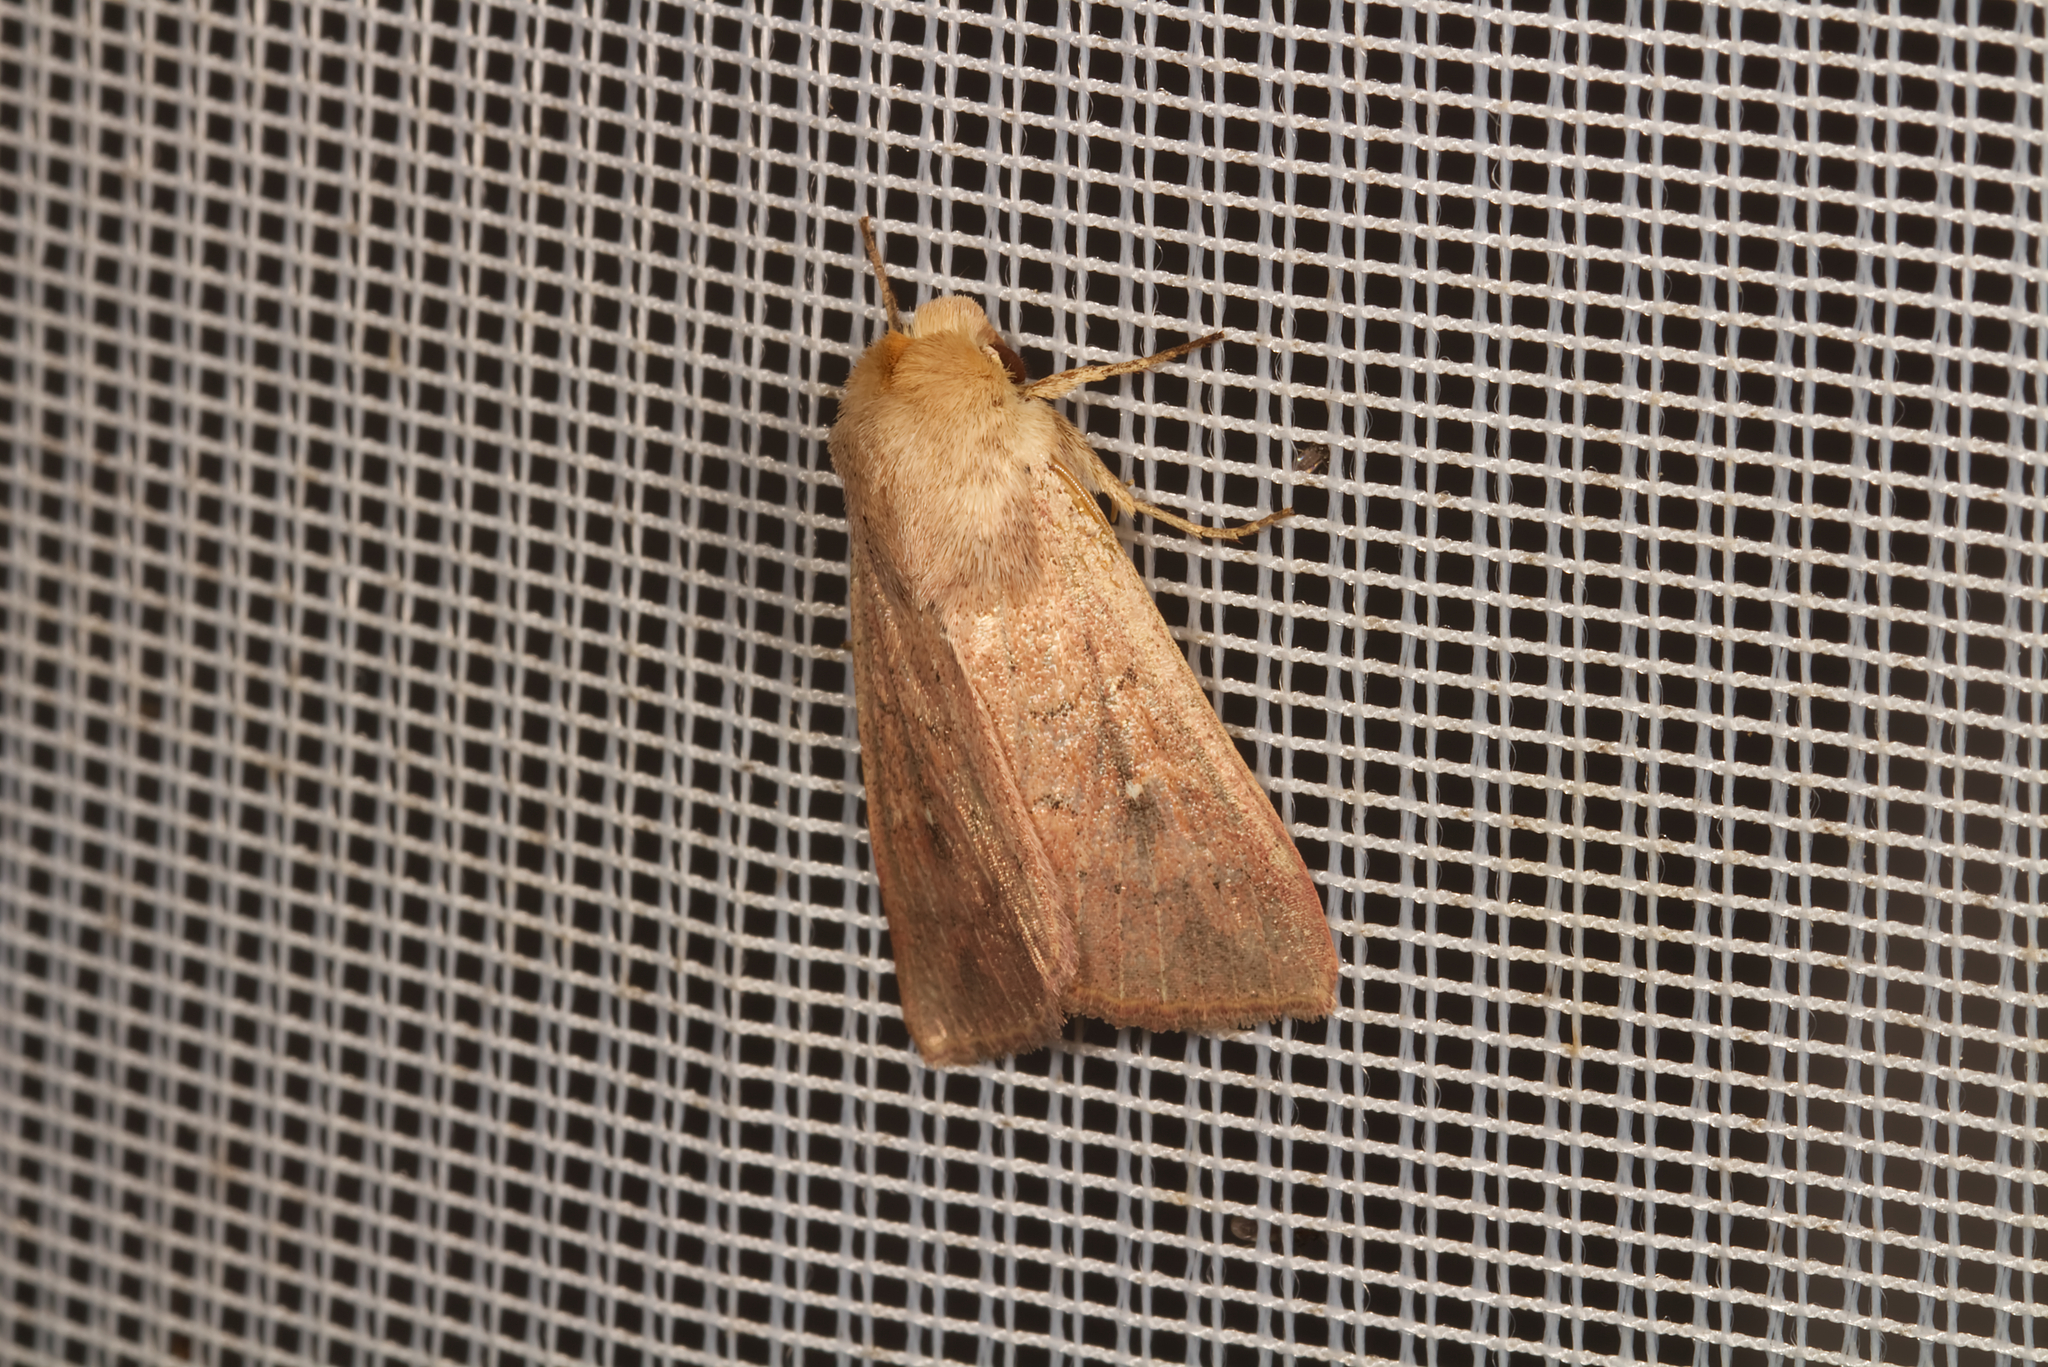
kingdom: Animalia
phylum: Arthropoda
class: Insecta
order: Lepidoptera
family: Noctuidae
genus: Mythimna
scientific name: Mythimna ferrago
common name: Clay
